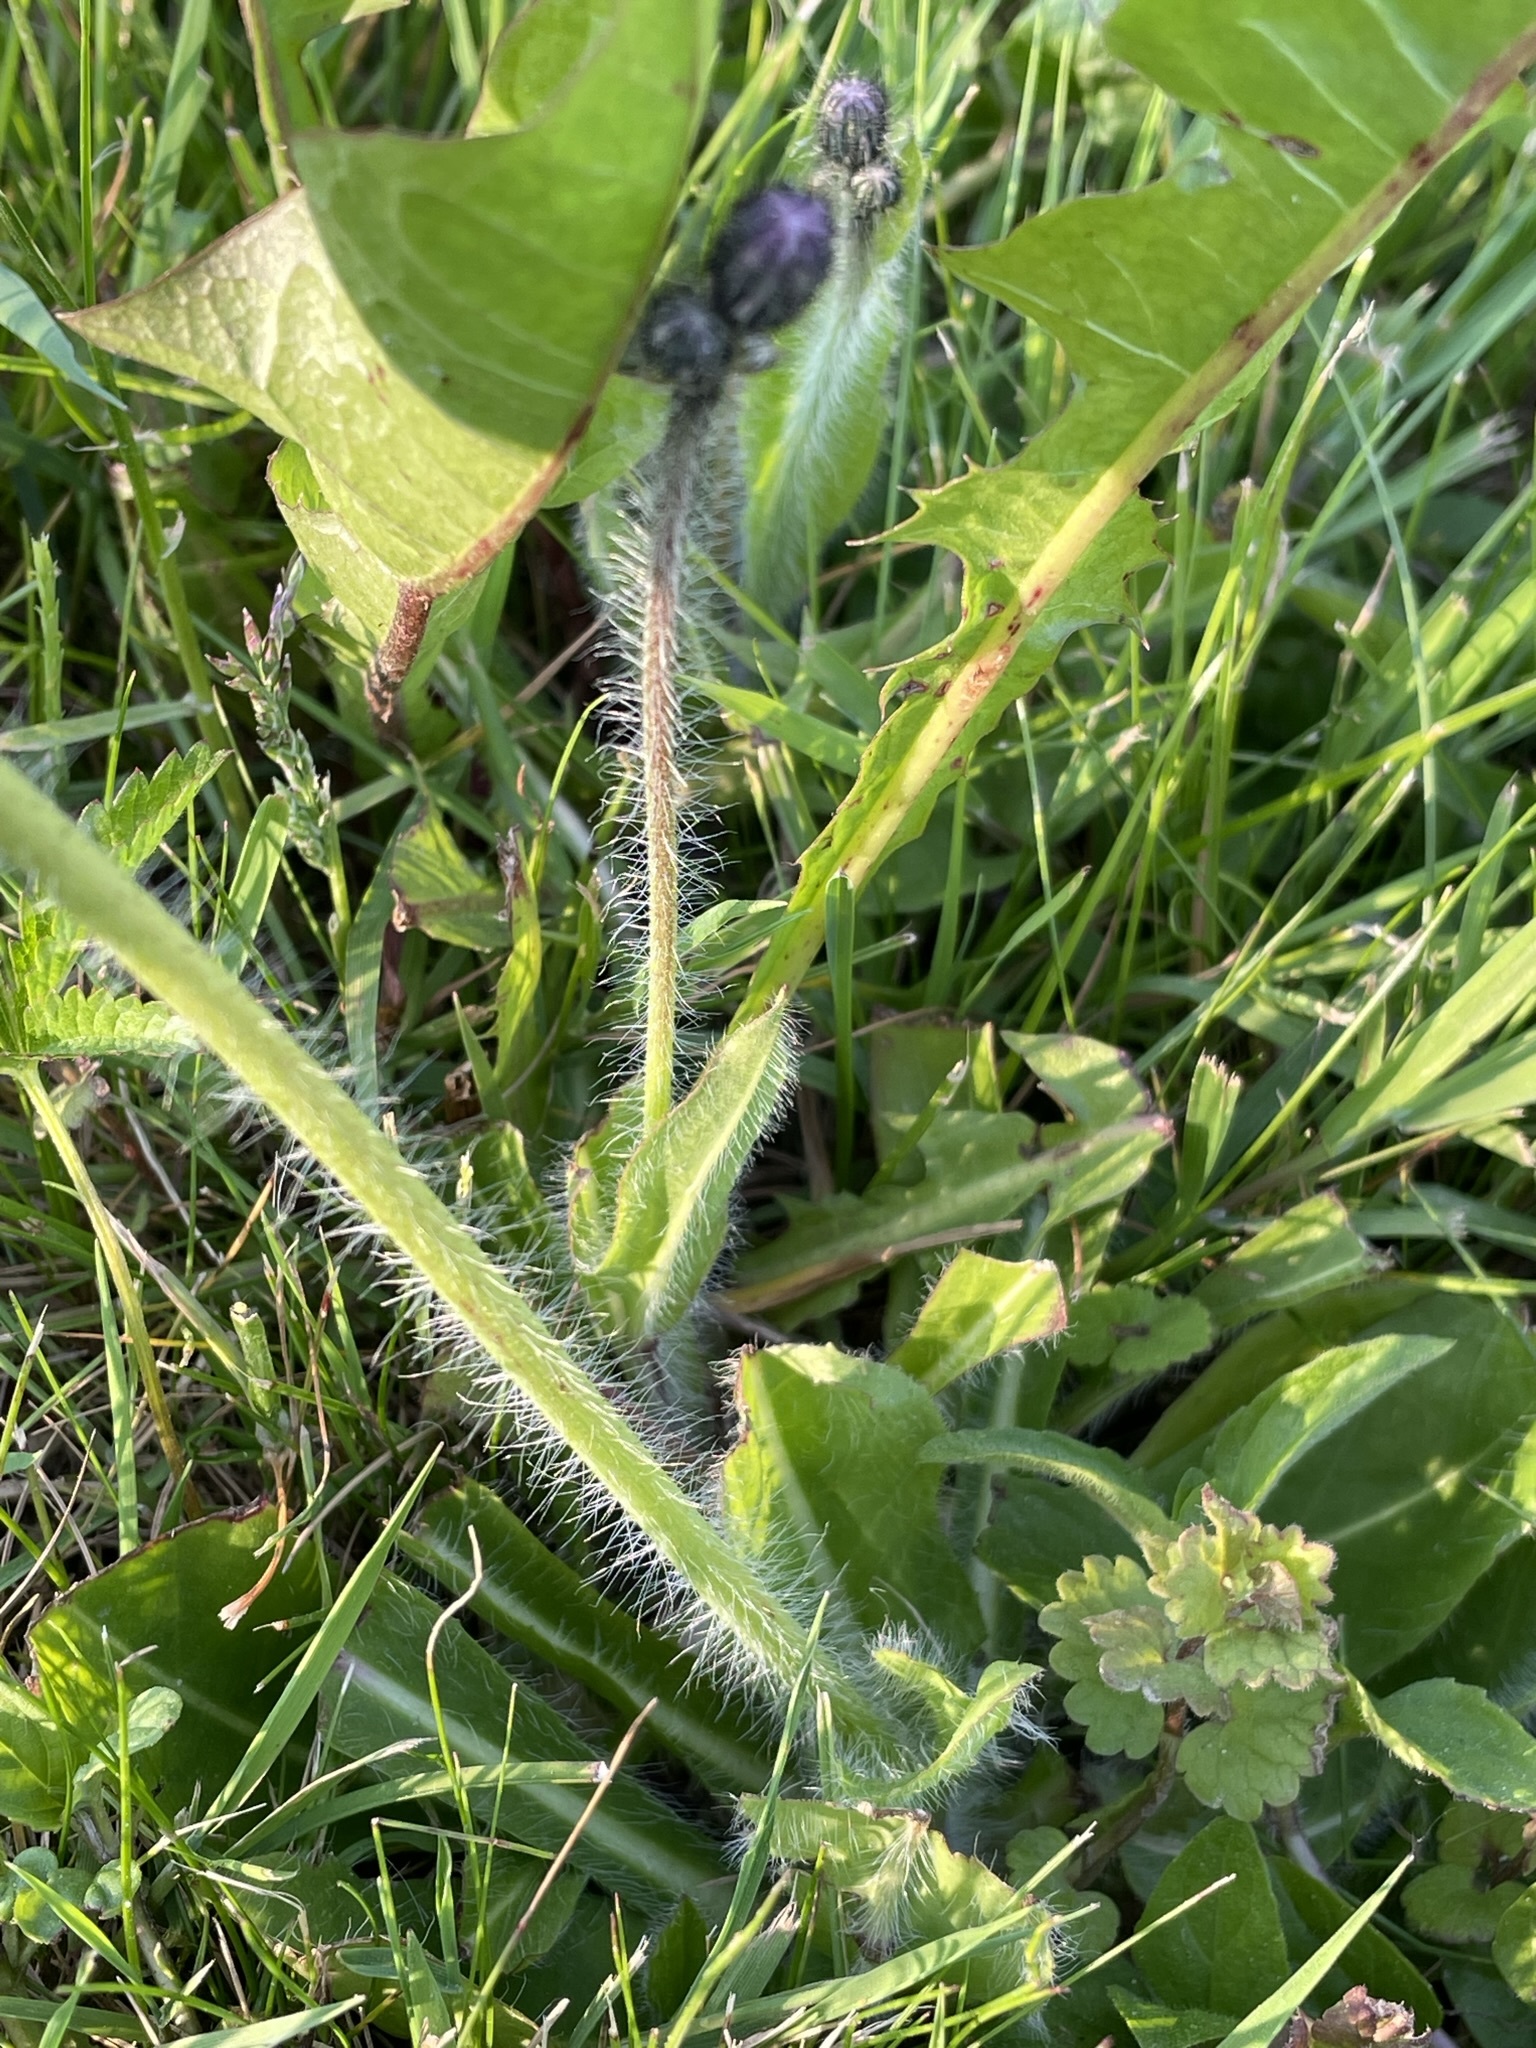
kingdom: Plantae
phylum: Tracheophyta
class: Magnoliopsida
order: Asterales
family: Asteraceae
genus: Pilosella
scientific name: Pilosella aurantiaca
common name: Fox-and-cubs
